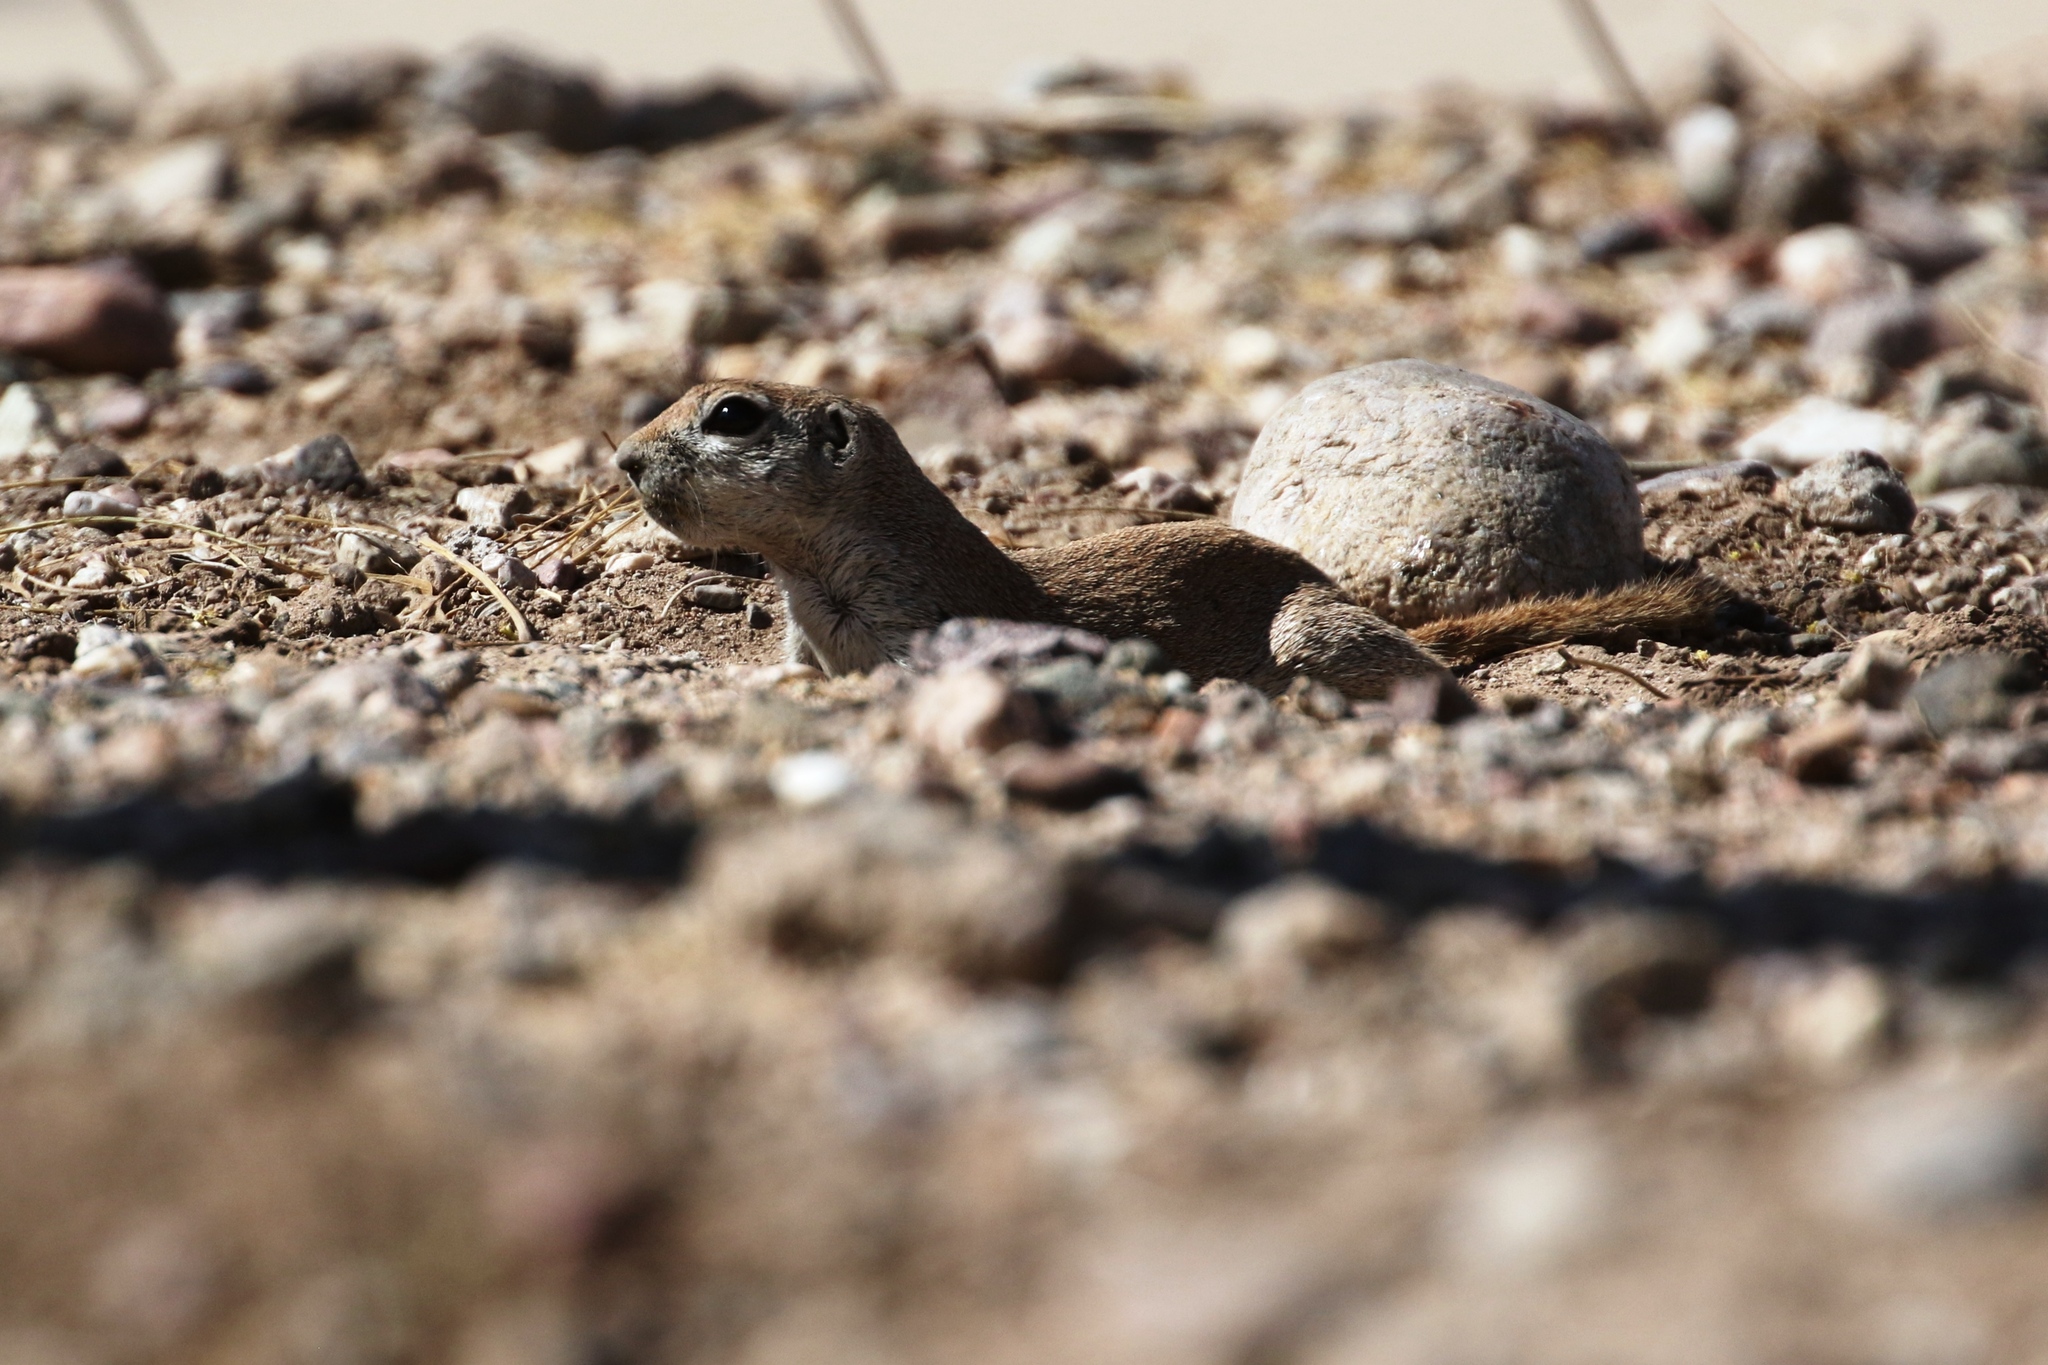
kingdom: Animalia
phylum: Chordata
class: Mammalia
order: Rodentia
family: Sciuridae
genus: Xerospermophilus
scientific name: Xerospermophilus tereticaudus
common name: Round-tailed ground squirrel
